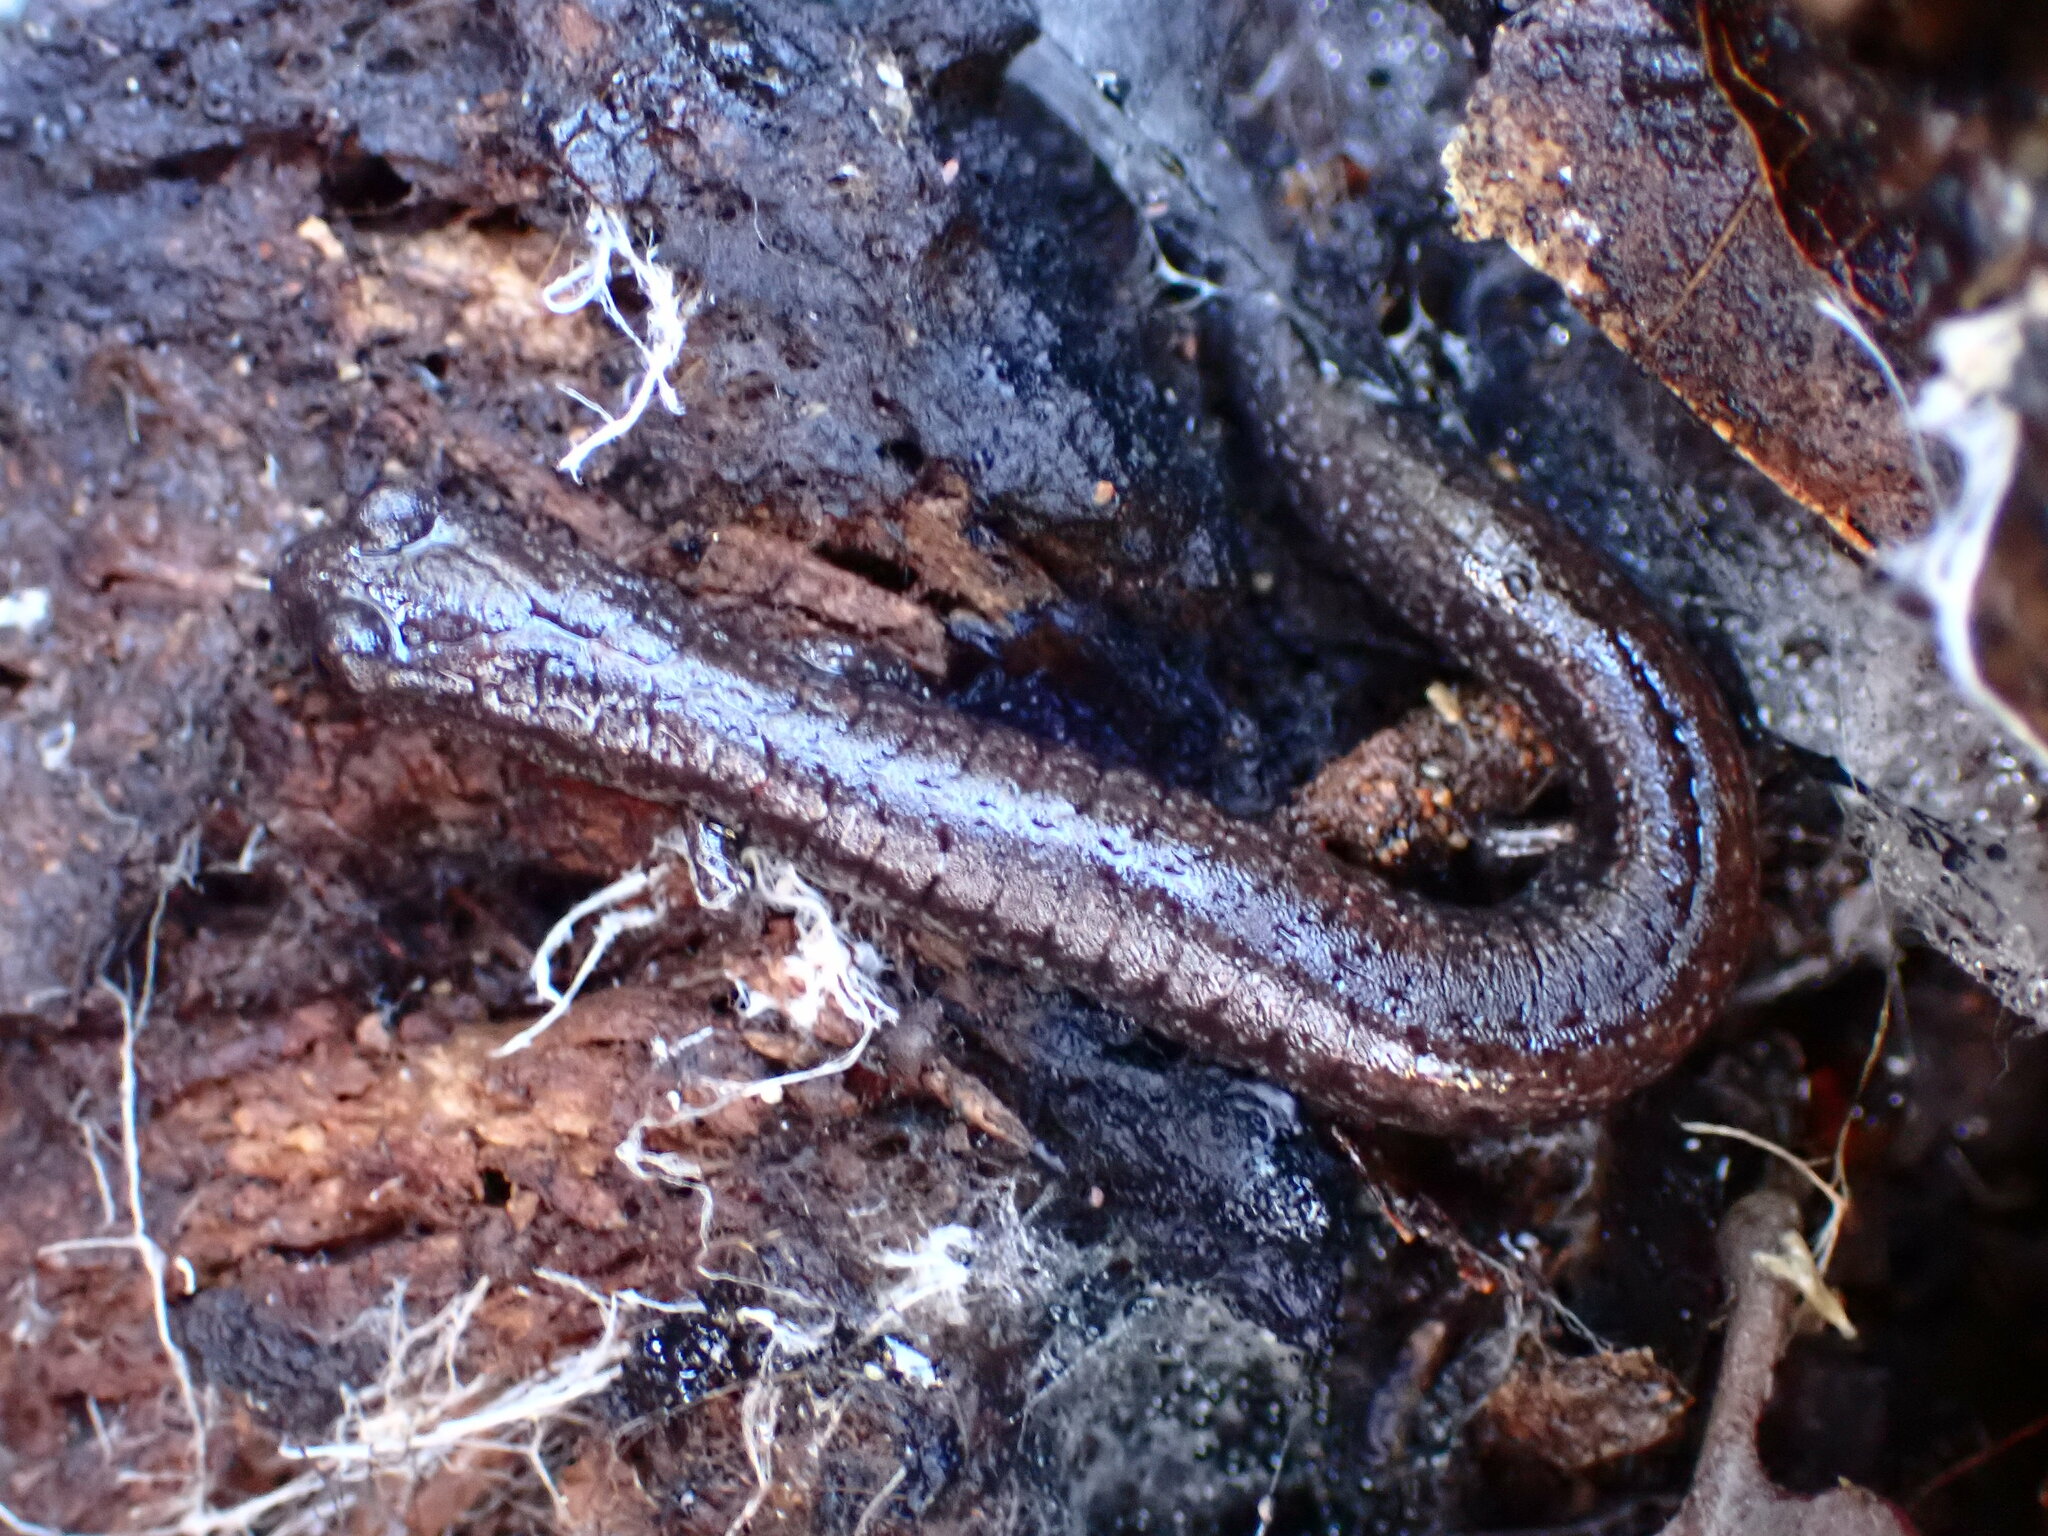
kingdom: Animalia
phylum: Chordata
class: Amphibia
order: Caudata
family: Plethodontidae
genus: Batrachoseps
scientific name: Batrachoseps gavilanensis
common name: Gabilan mountains slender salamander
